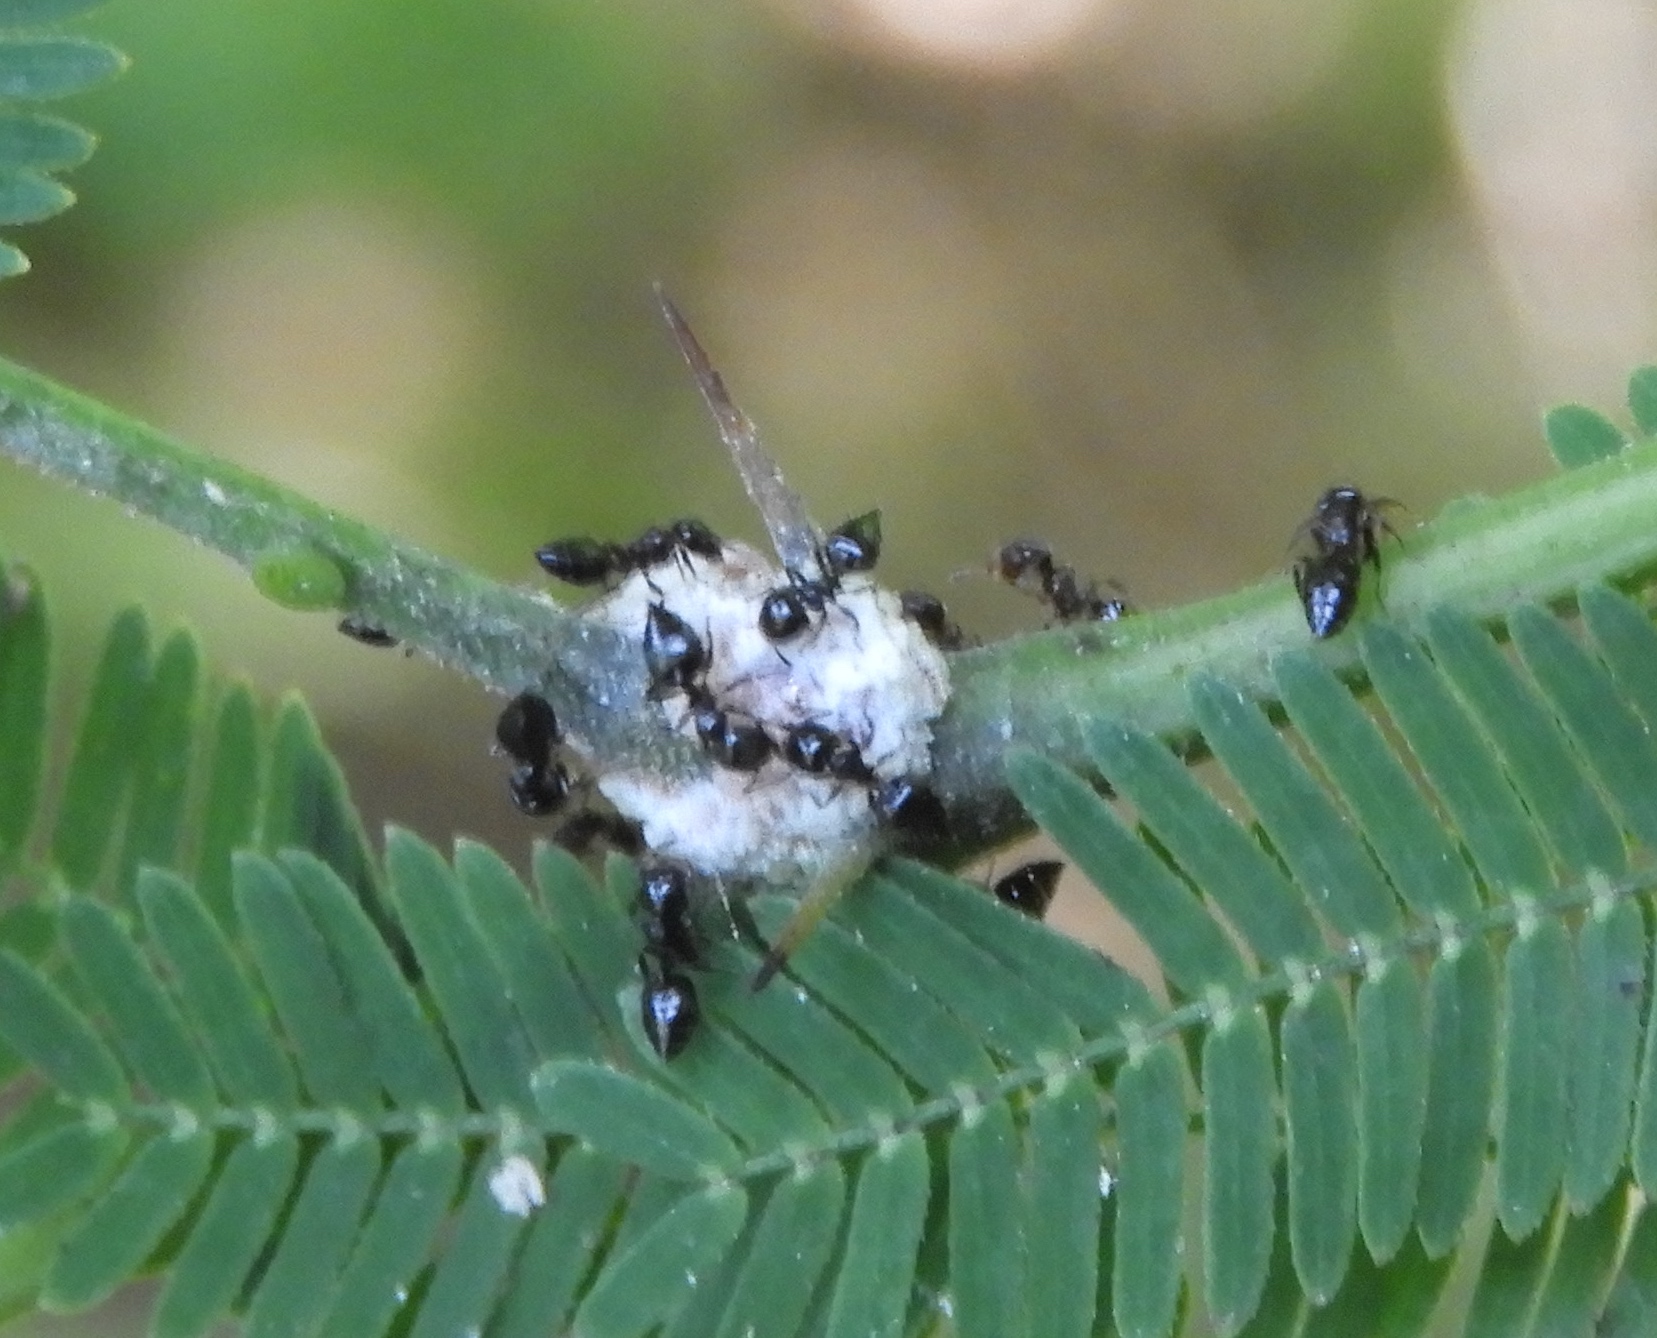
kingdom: Animalia
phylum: Arthropoda
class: Insecta
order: Hymenoptera
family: Formicidae
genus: Crematogaster
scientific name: Crematogaster
